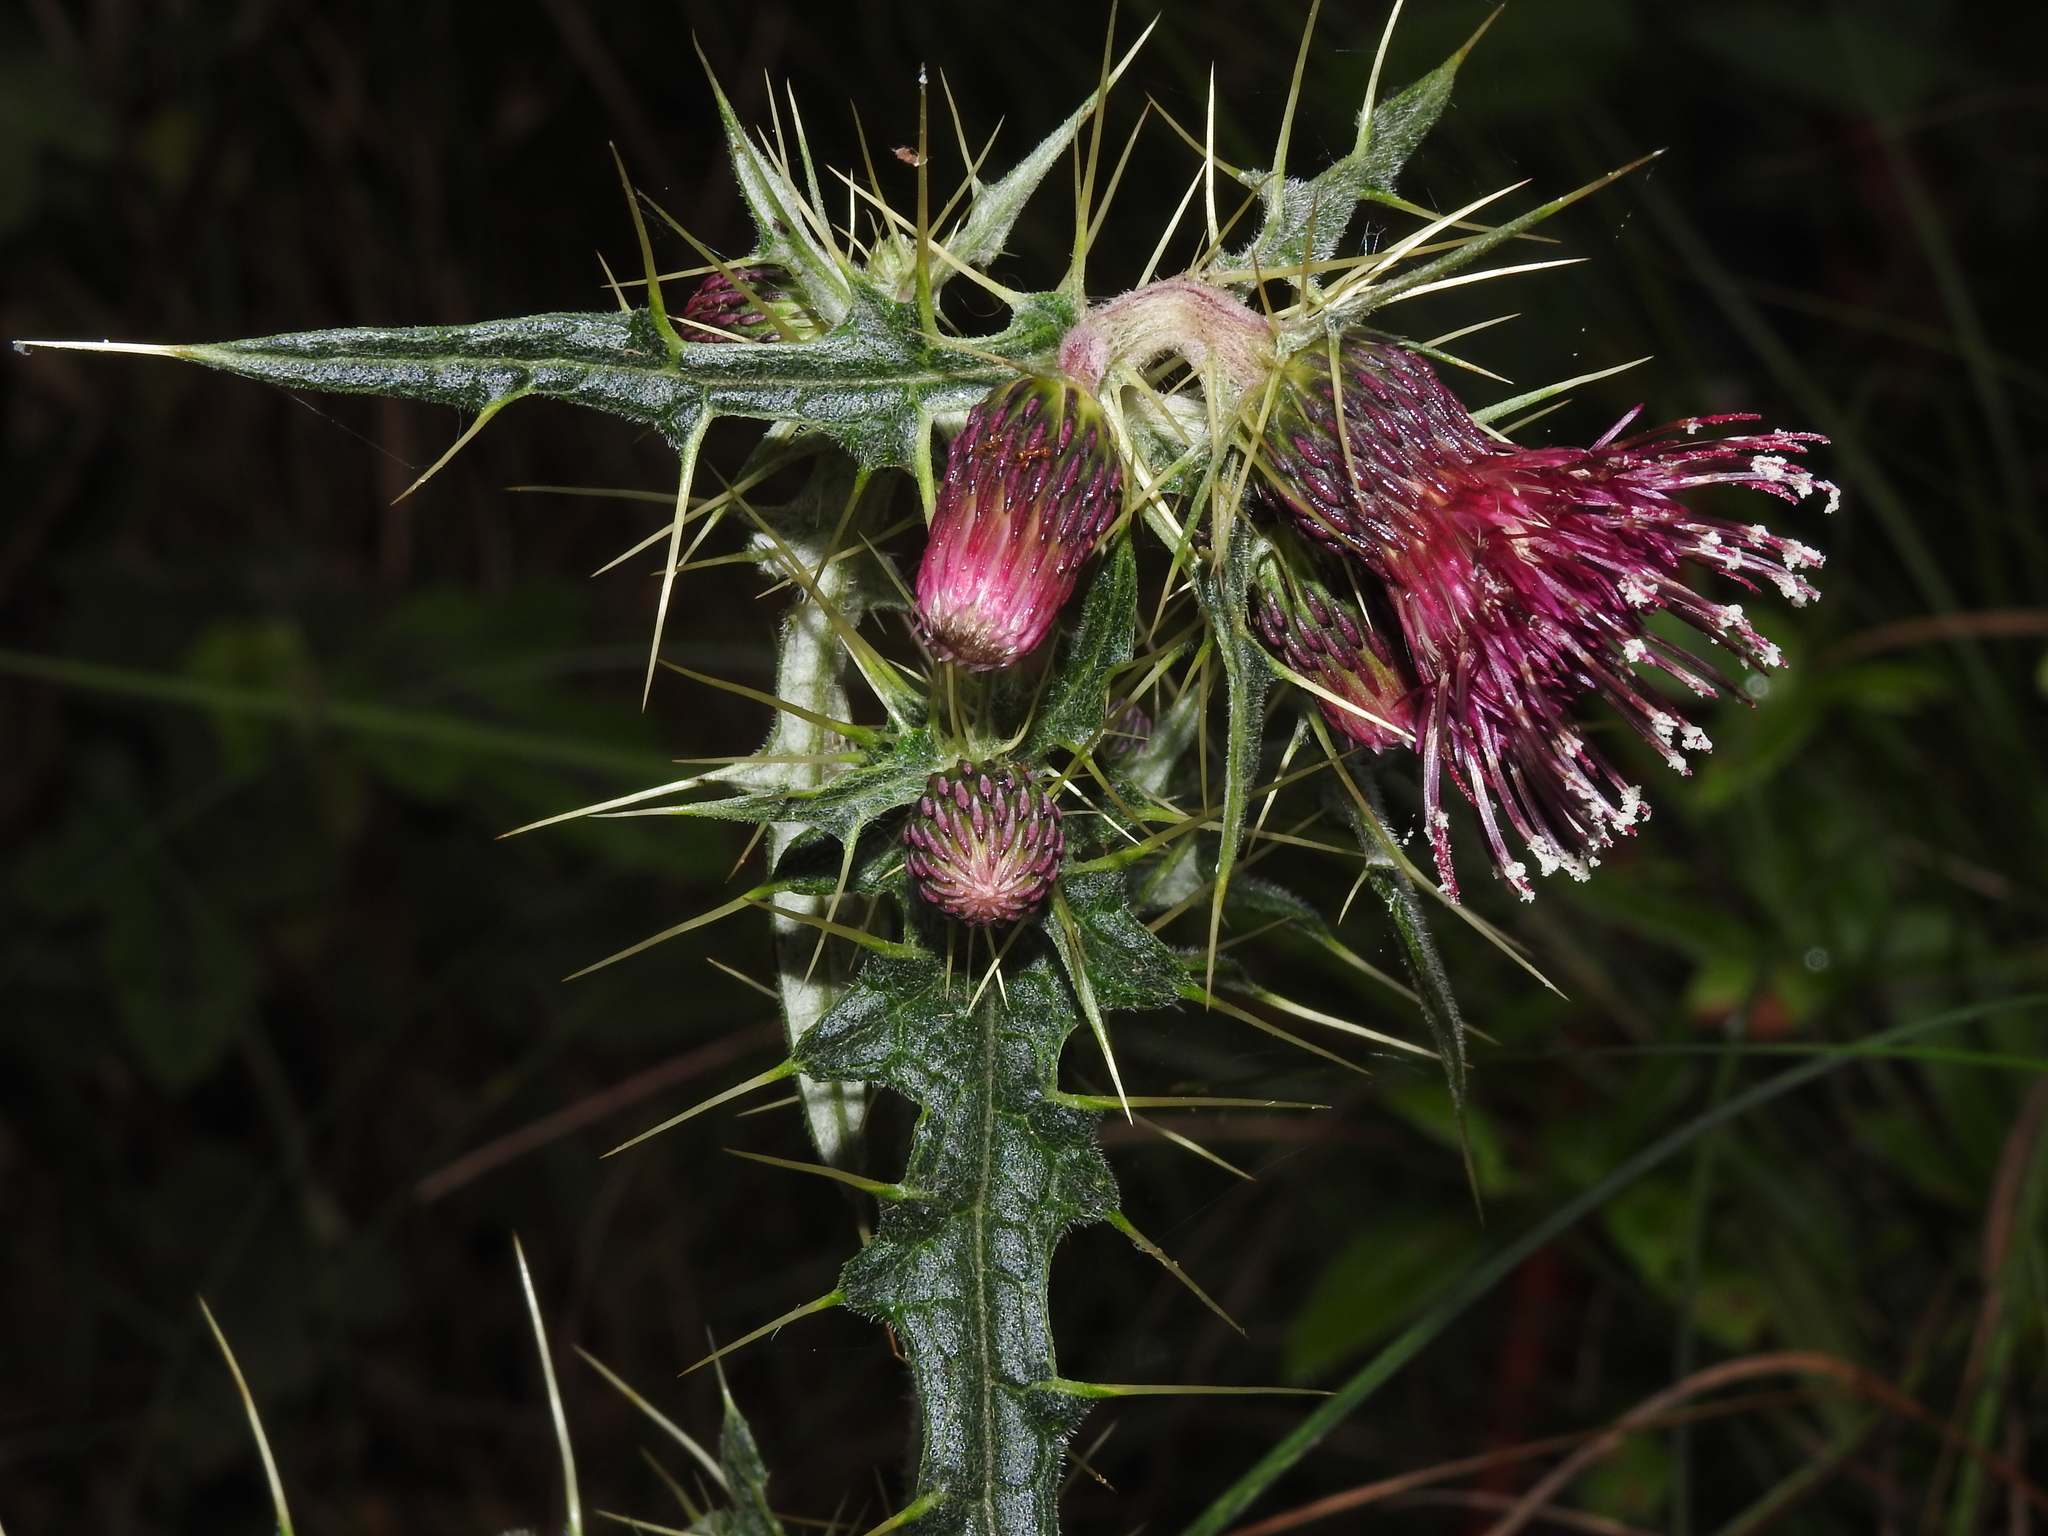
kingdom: Plantae
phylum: Tracheophyta
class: Magnoliopsida
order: Asterales
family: Asteraceae
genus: Cirsium
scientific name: Cirsium suzukii
